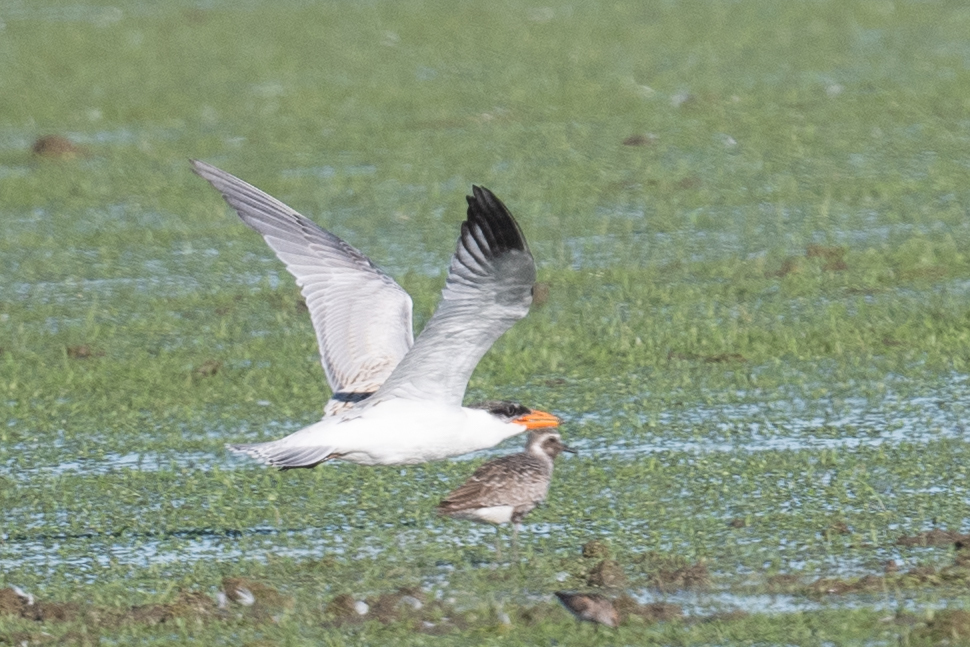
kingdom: Animalia
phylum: Chordata
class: Aves
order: Charadriiformes
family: Laridae
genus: Hydroprogne
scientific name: Hydroprogne caspia
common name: Caspian tern
